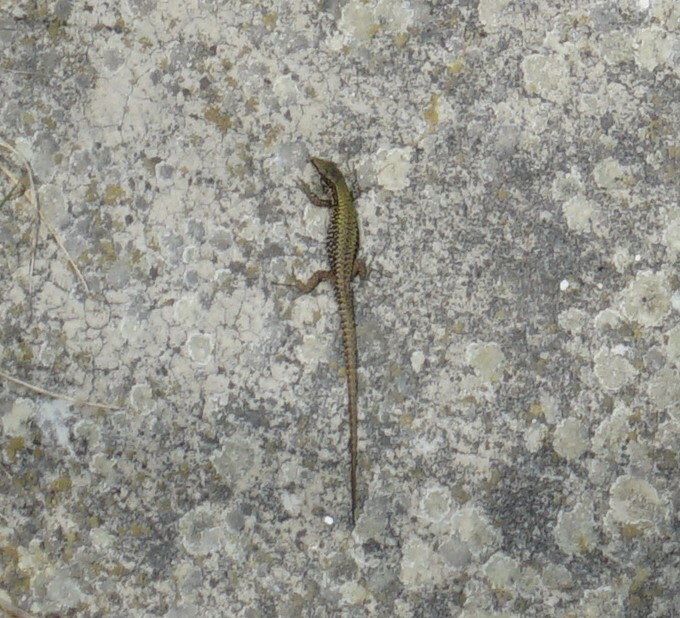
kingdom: Animalia
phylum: Chordata
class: Squamata
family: Lacertidae
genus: Podarcis
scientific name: Podarcis muralis
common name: Common wall lizard
